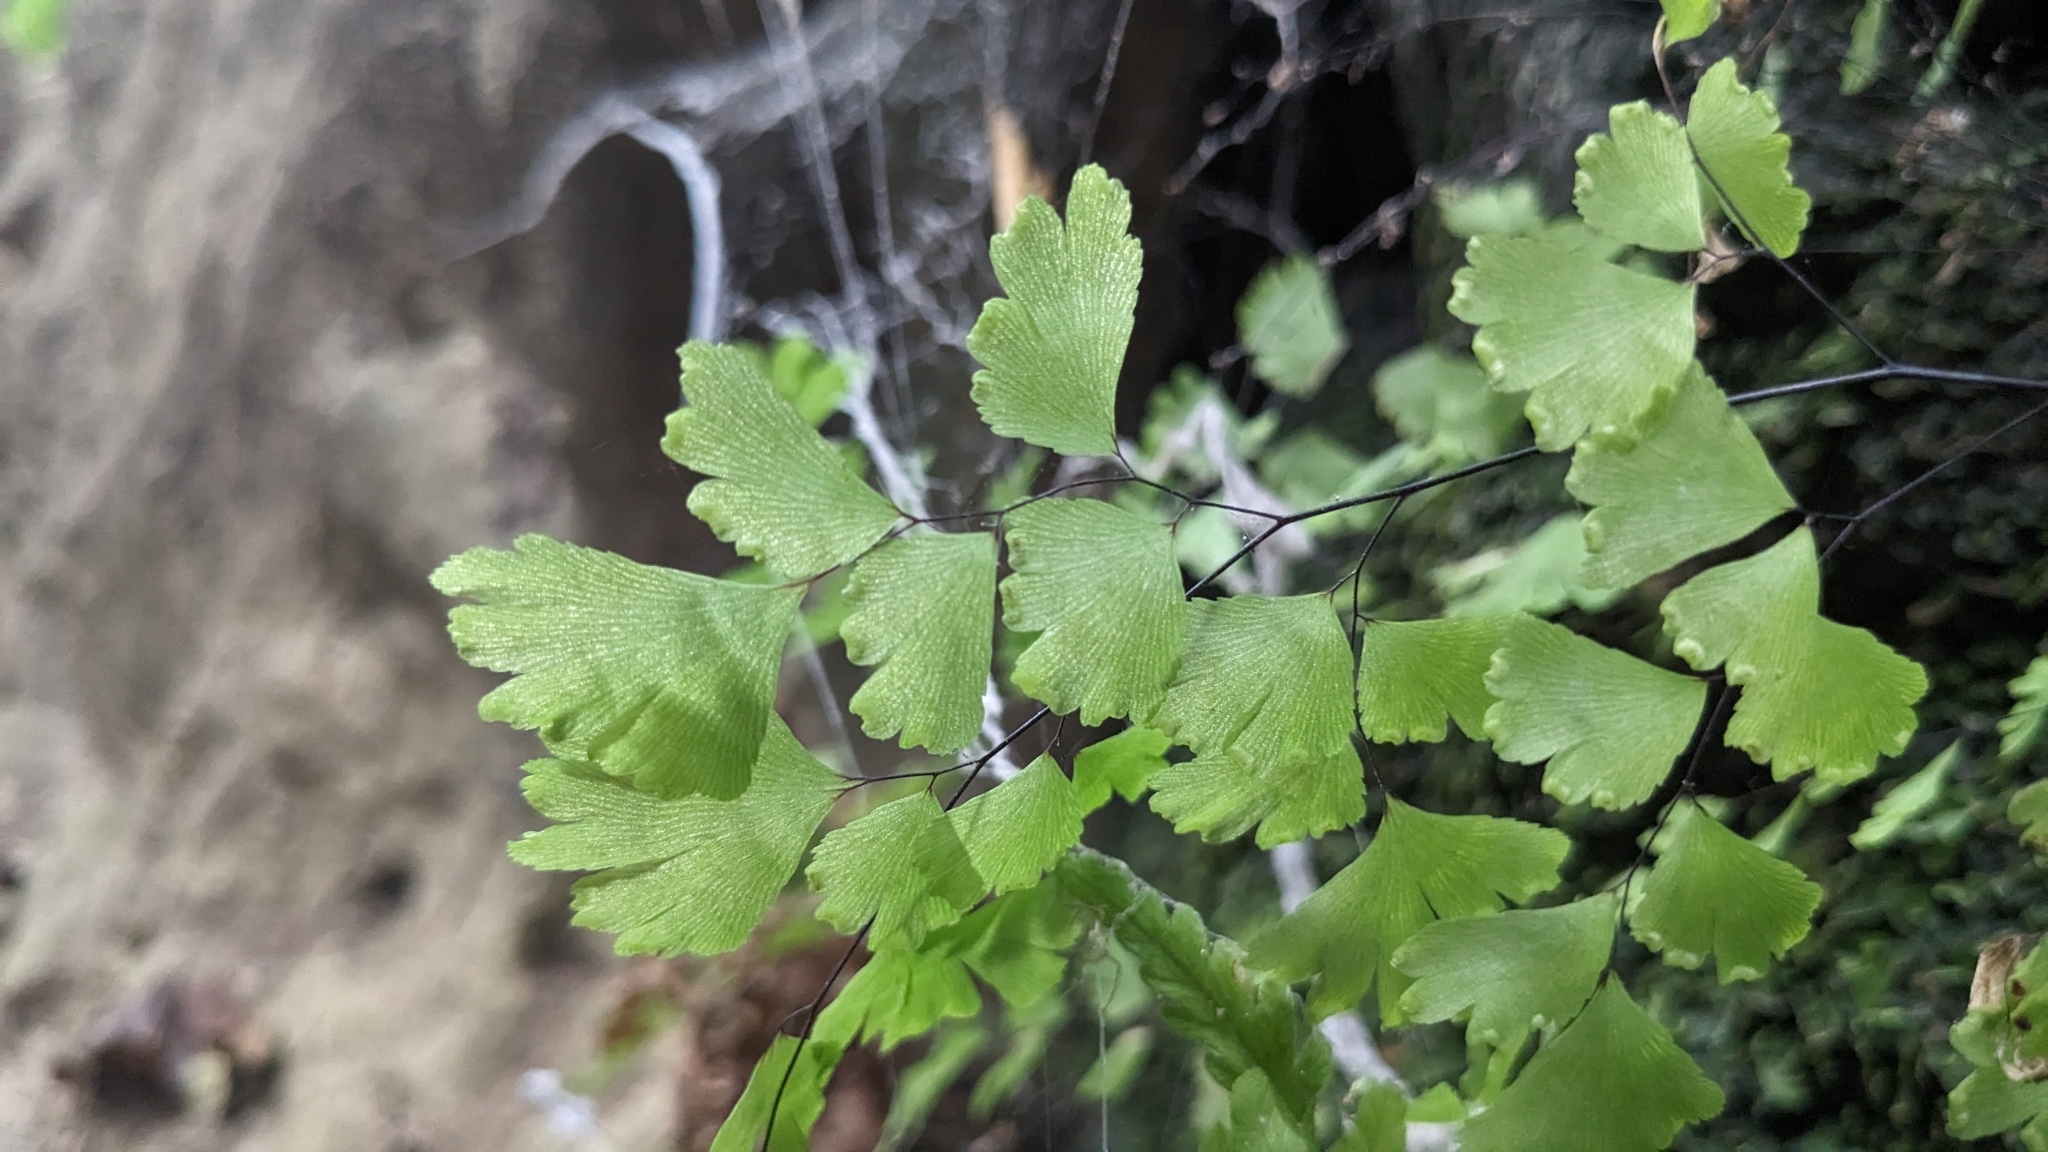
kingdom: Plantae
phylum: Tracheophyta
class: Polypodiopsida
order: Polypodiales
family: Pteridaceae
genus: Adiantum
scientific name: Adiantum capillus-veneris
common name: Maidenhair fern
